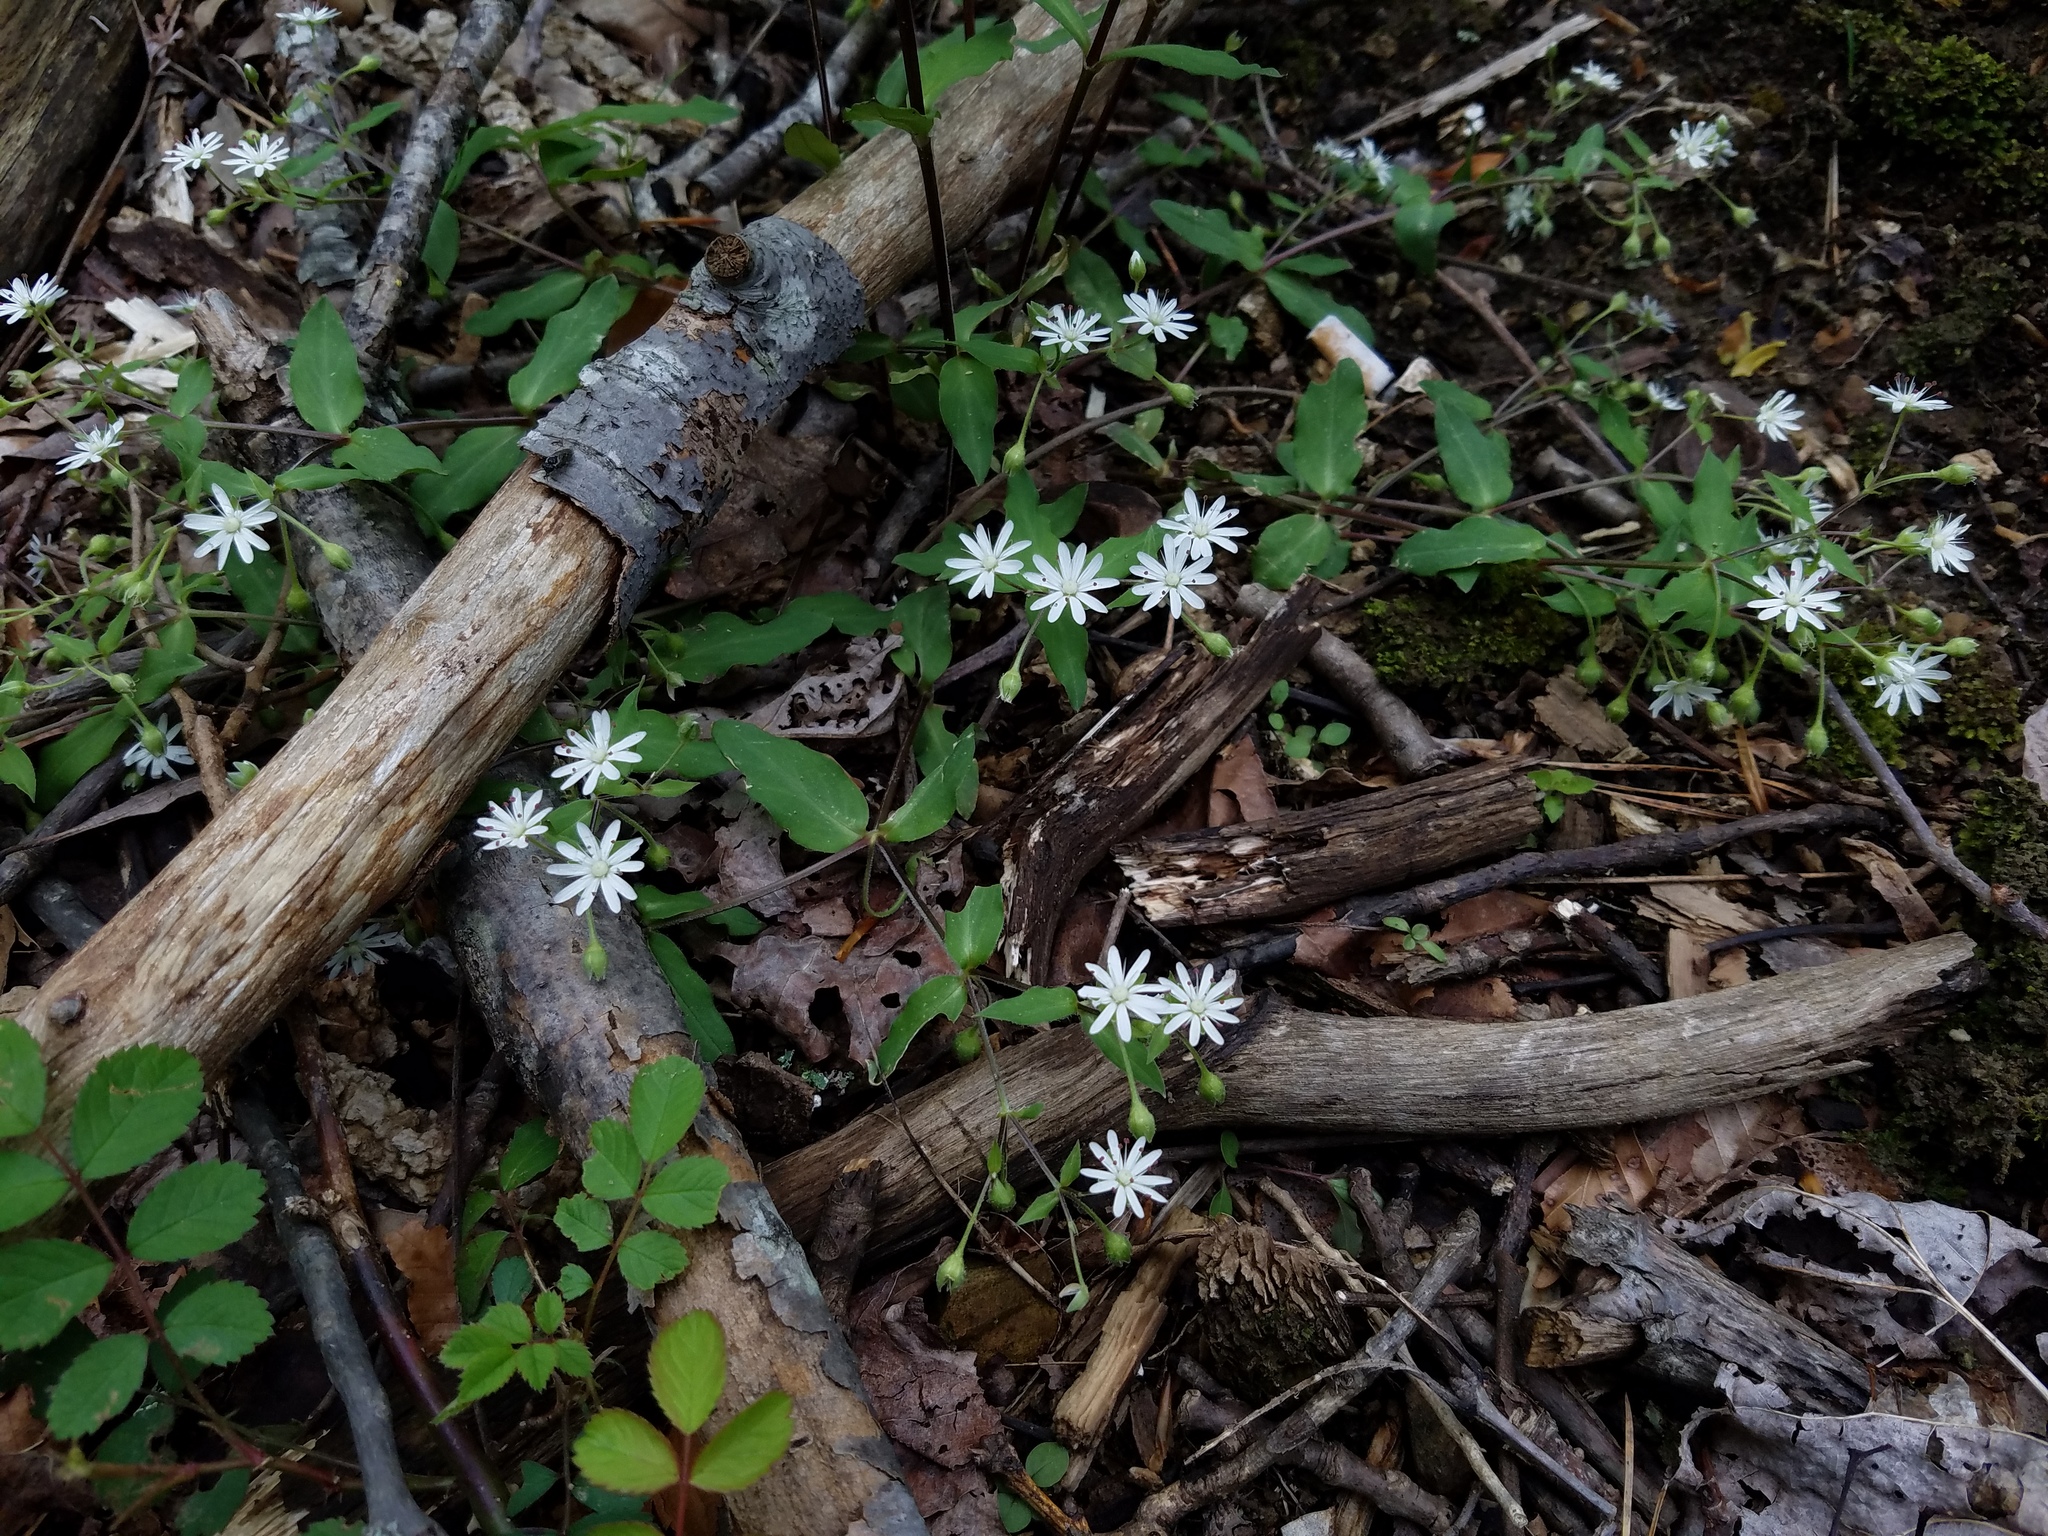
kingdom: Plantae
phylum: Tracheophyta
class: Magnoliopsida
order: Caryophyllales
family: Caryophyllaceae
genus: Stellaria
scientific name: Stellaria pubera
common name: Star chickweed
